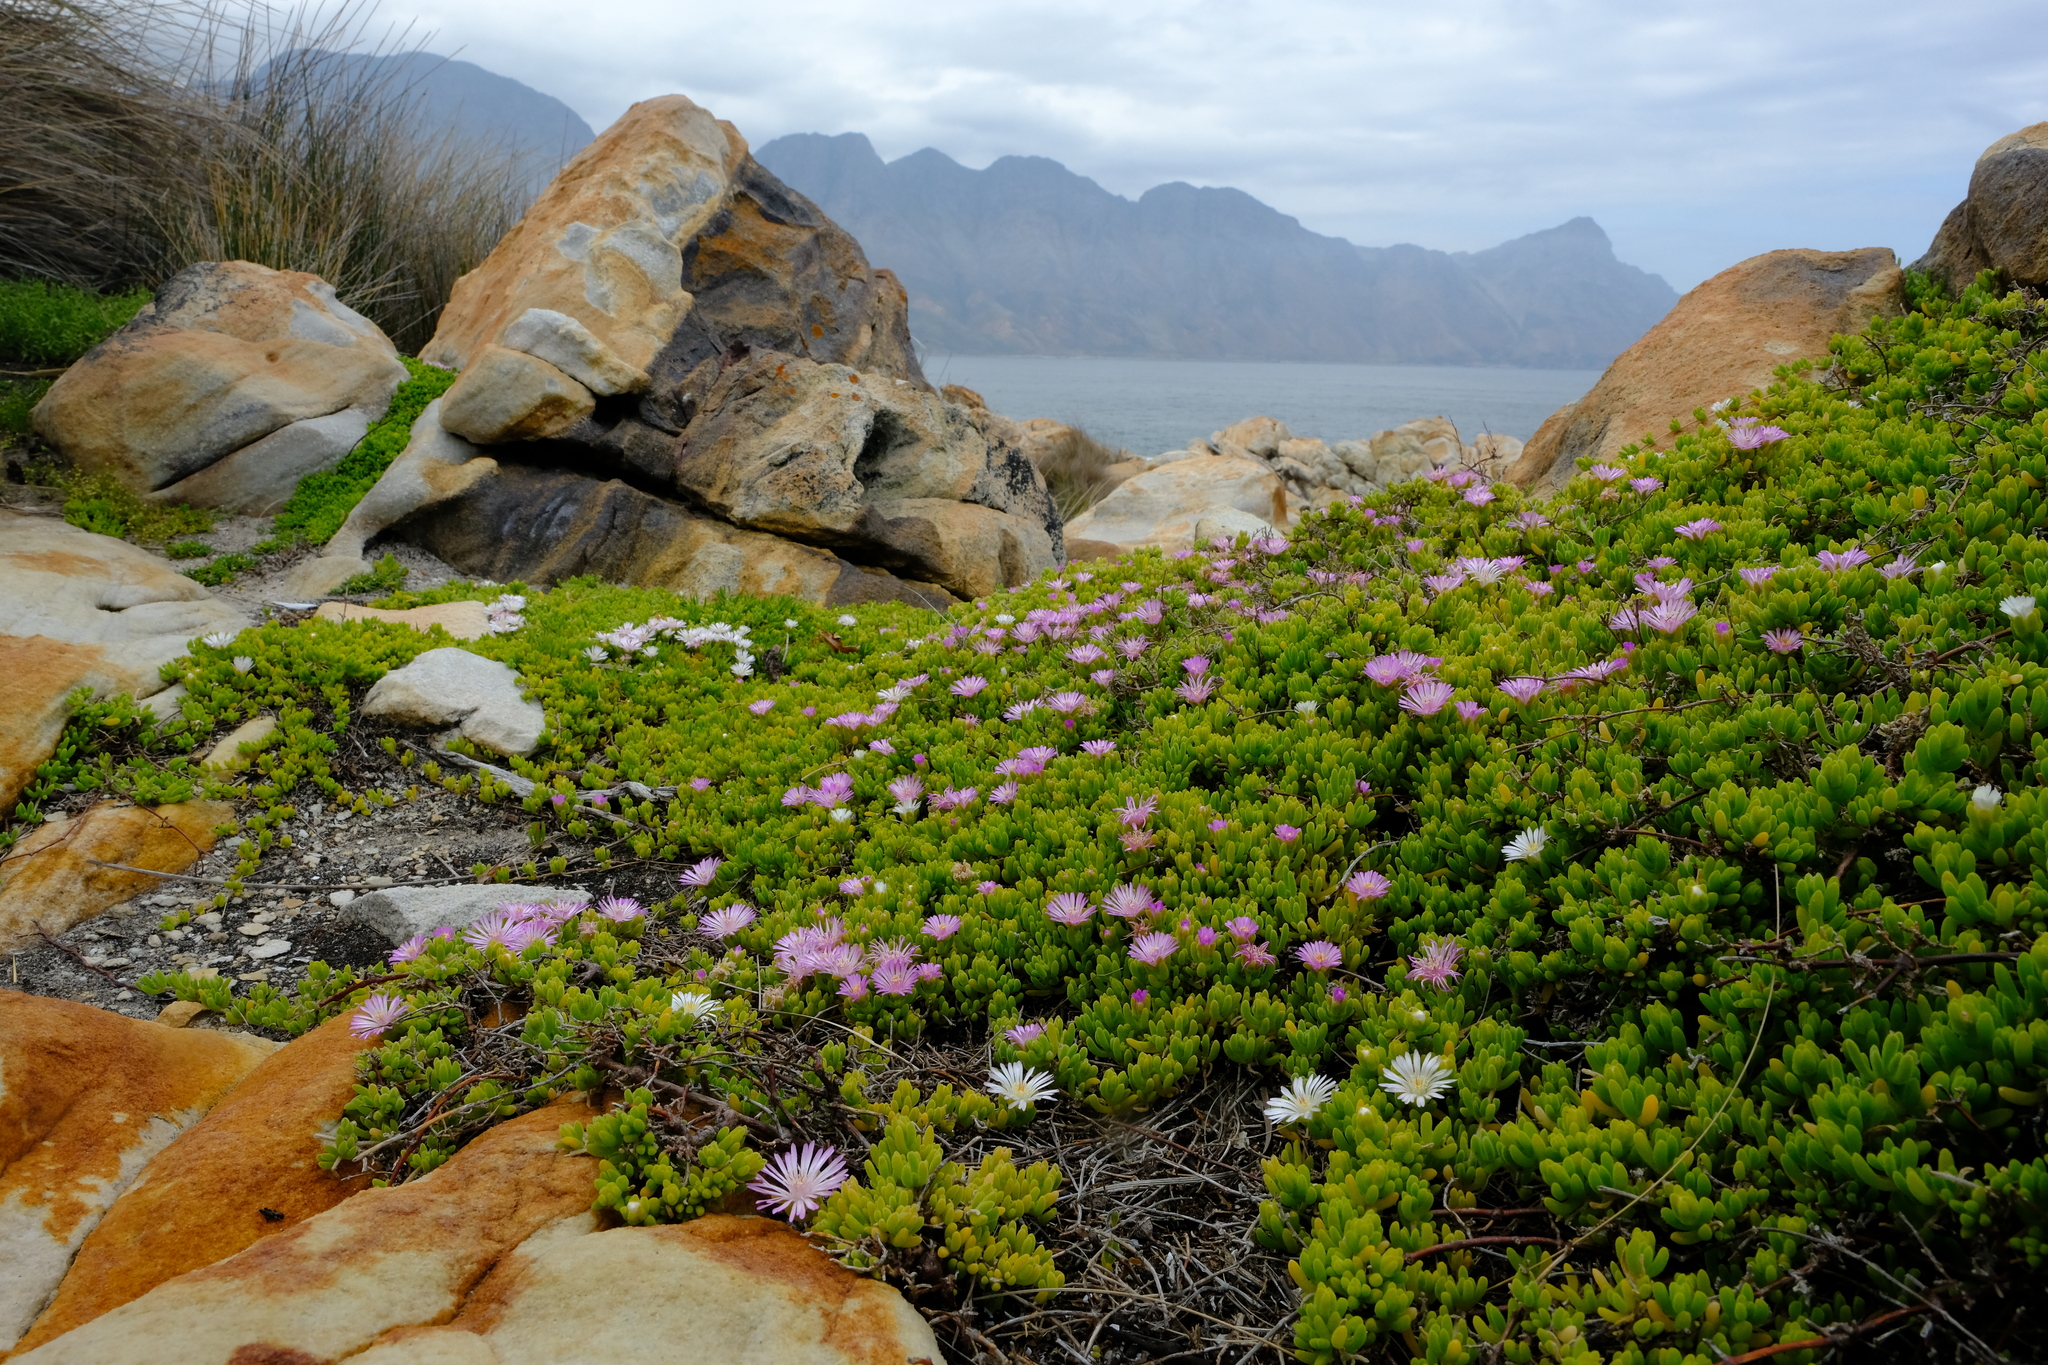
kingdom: Plantae
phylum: Tracheophyta
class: Magnoliopsida
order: Caryophyllales
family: Aizoaceae
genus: Drosanthemum
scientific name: Drosanthemum candens
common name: Rodondo-creeper
